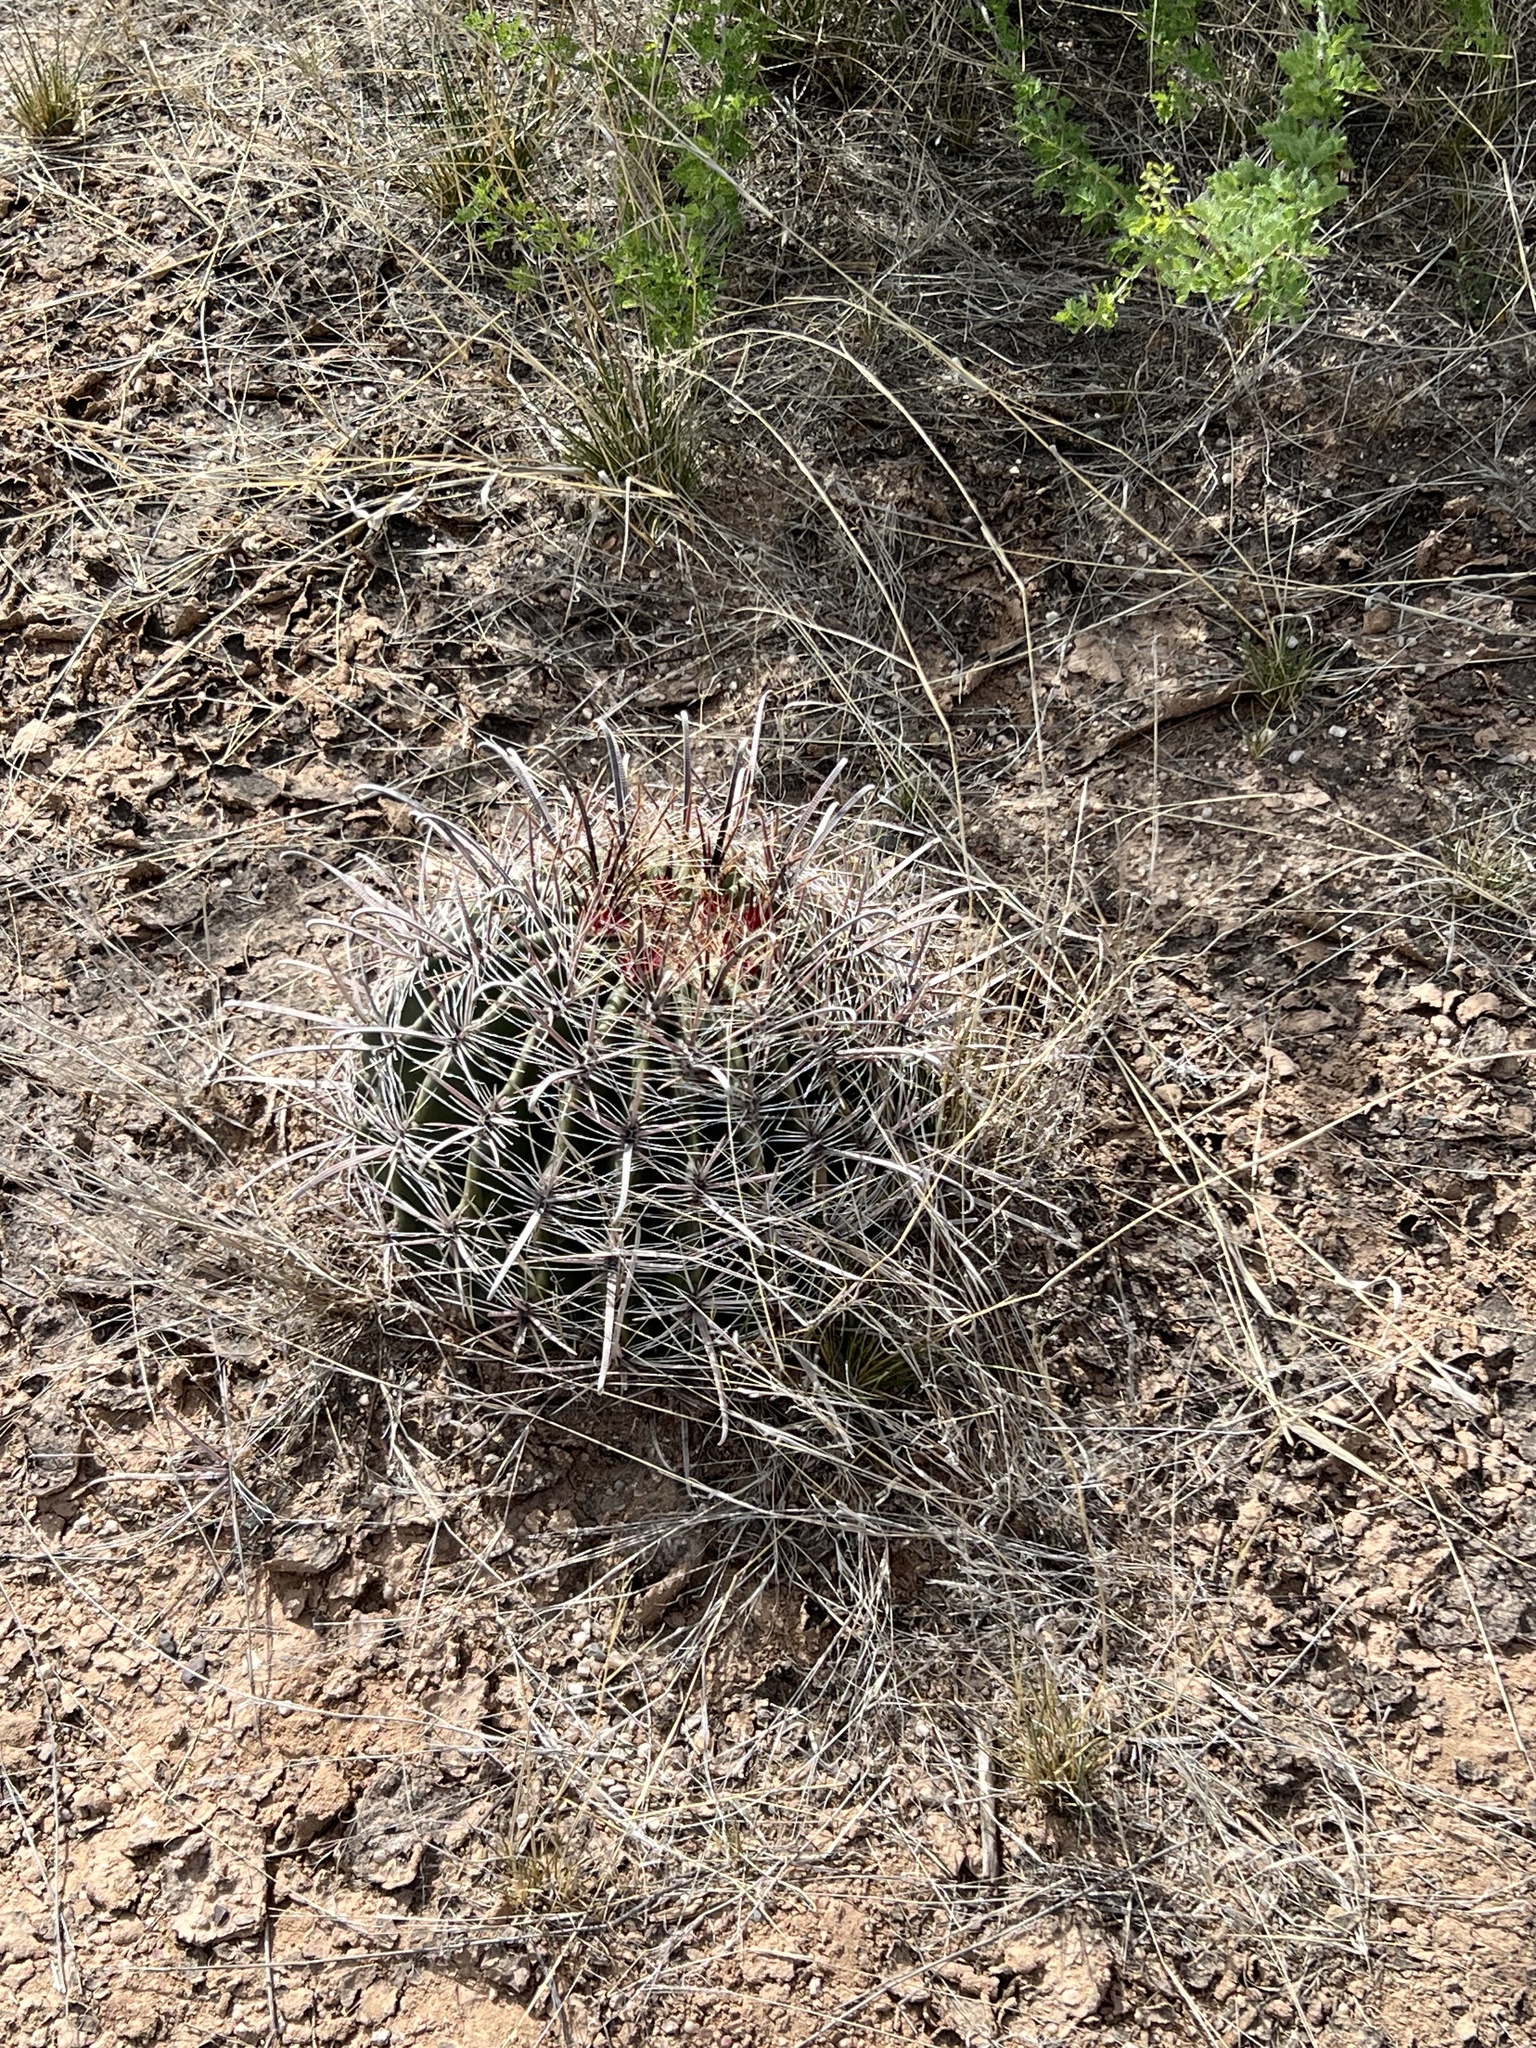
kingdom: Plantae
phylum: Tracheophyta
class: Magnoliopsida
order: Caryophyllales
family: Cactaceae
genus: Ferocactus
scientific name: Ferocactus wislizeni
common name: Candy barrel cactus
